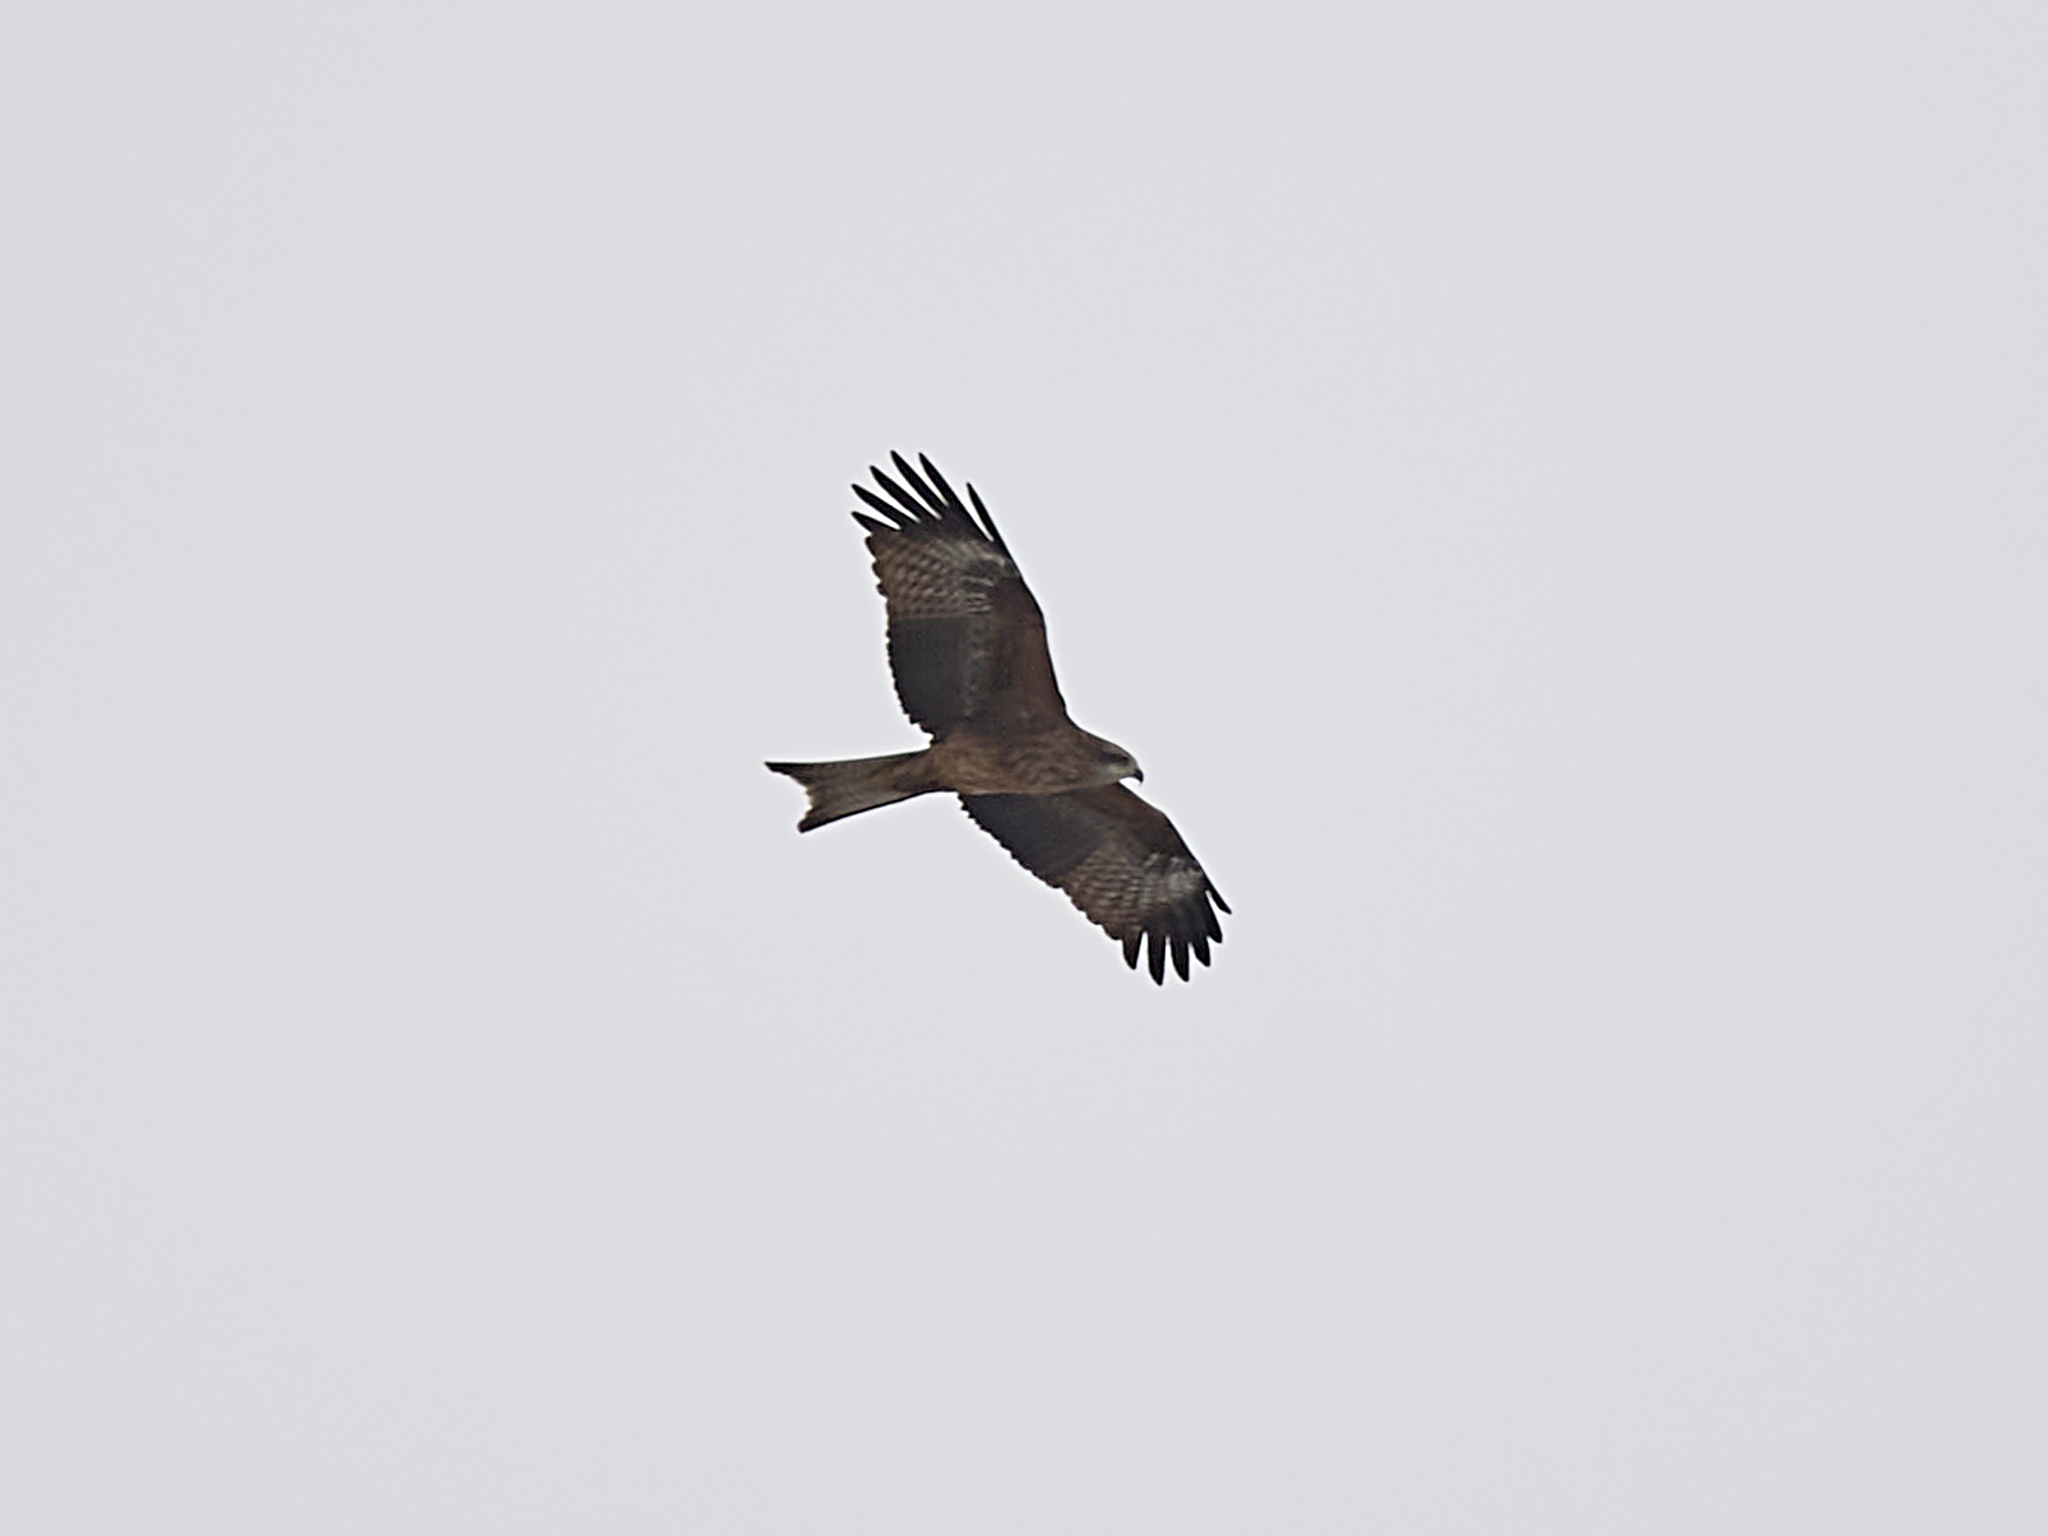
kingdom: Animalia
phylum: Chordata
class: Aves
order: Accipitriformes
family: Accipitridae
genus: Milvus
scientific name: Milvus migrans
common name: Black kite
